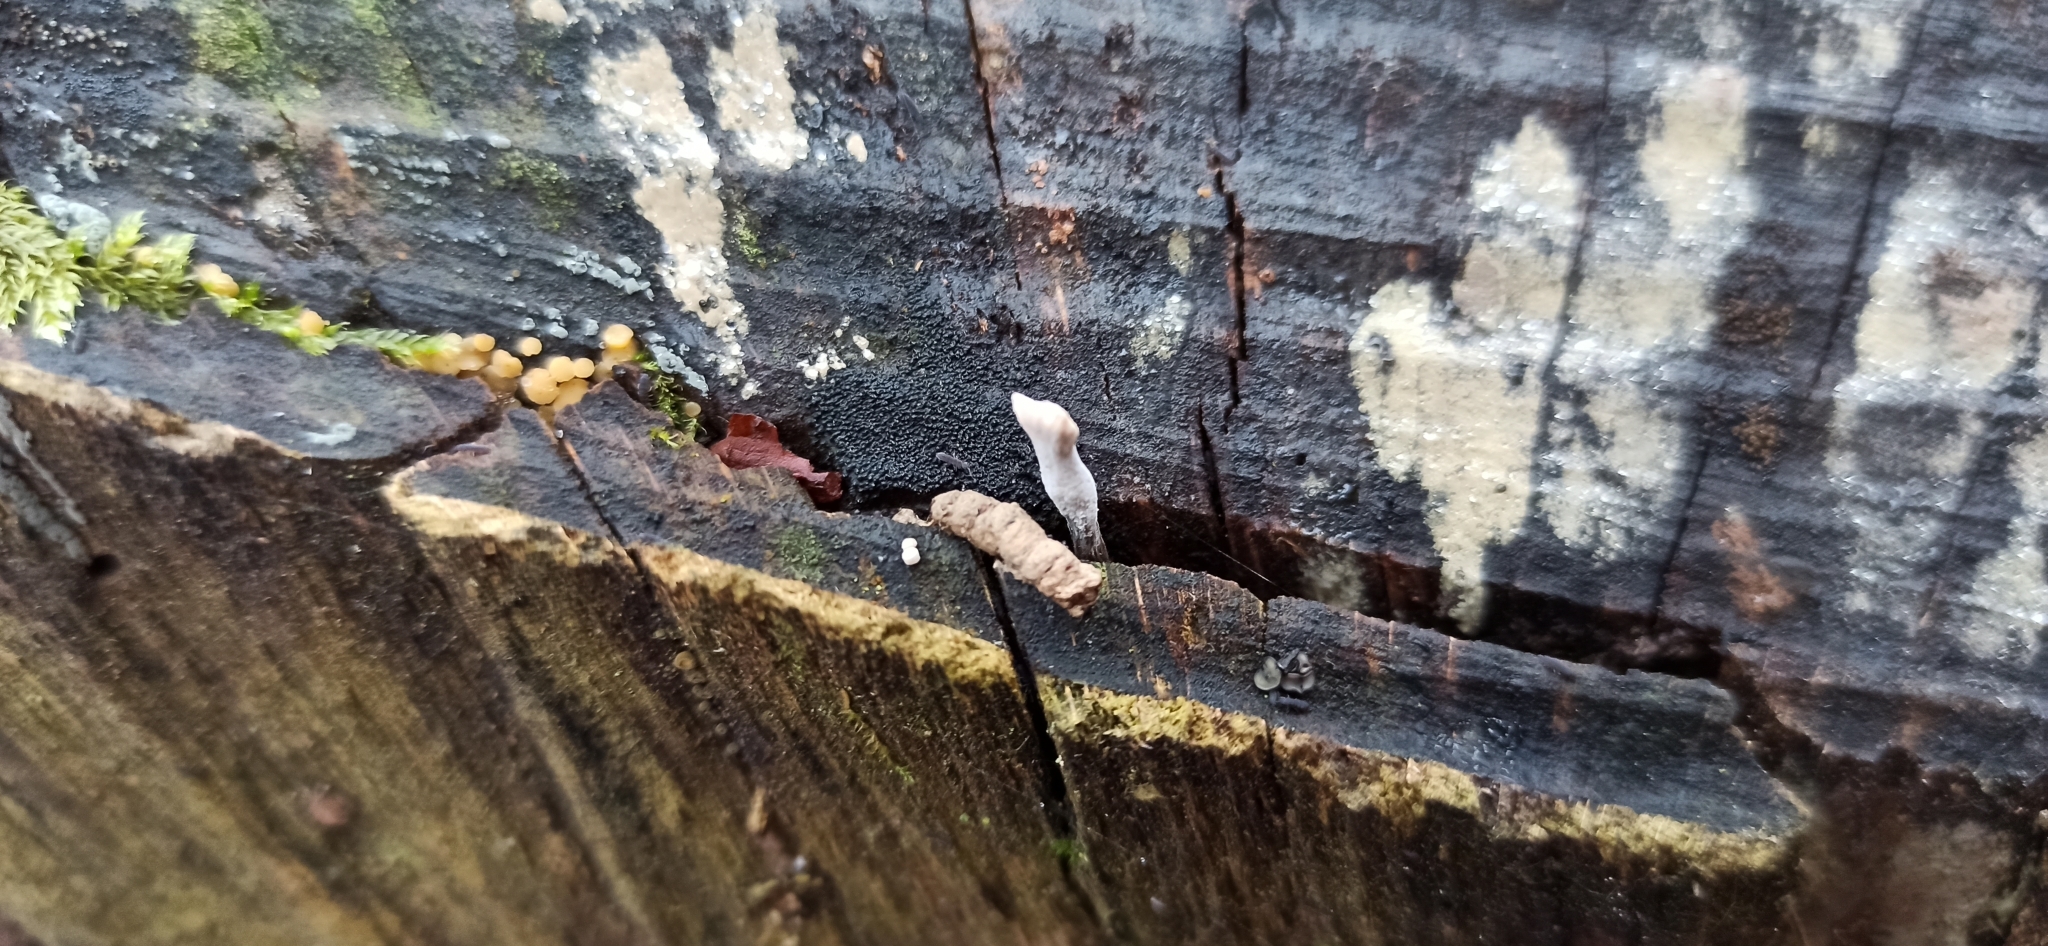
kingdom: Fungi
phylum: Ascomycota
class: Sordariomycetes
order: Xylariales
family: Xylariaceae
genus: Xylaria
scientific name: Xylaria hypoxylon
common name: Candle-snuff fungus
